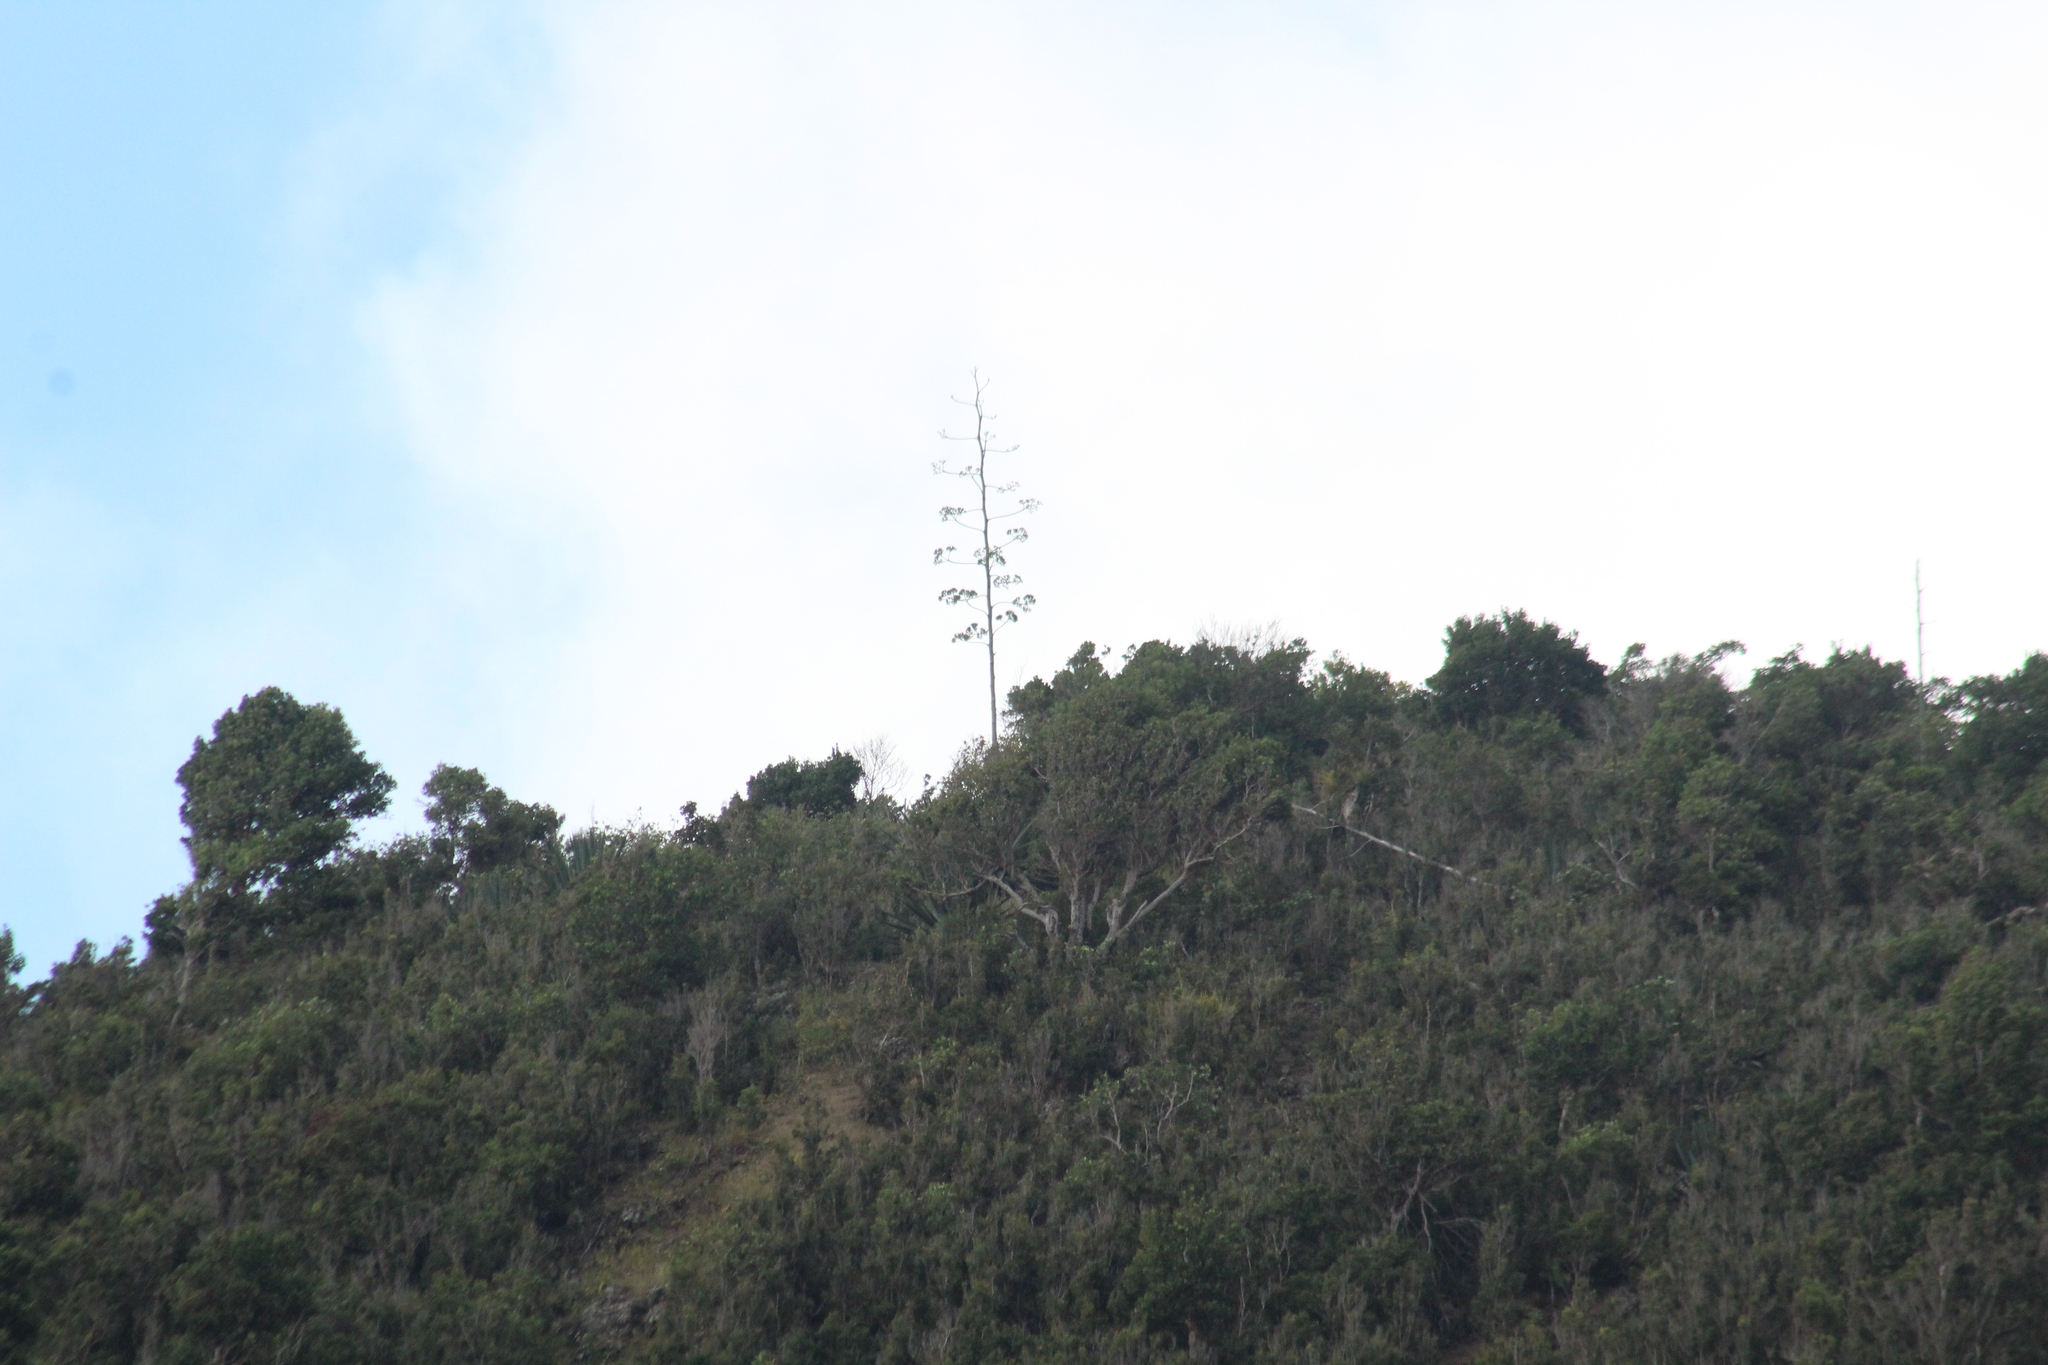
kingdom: Plantae
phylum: Tracheophyta
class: Liliopsida
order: Asparagales
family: Asparagaceae
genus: Agave
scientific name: Agave sisalana
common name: Sisal hemp
